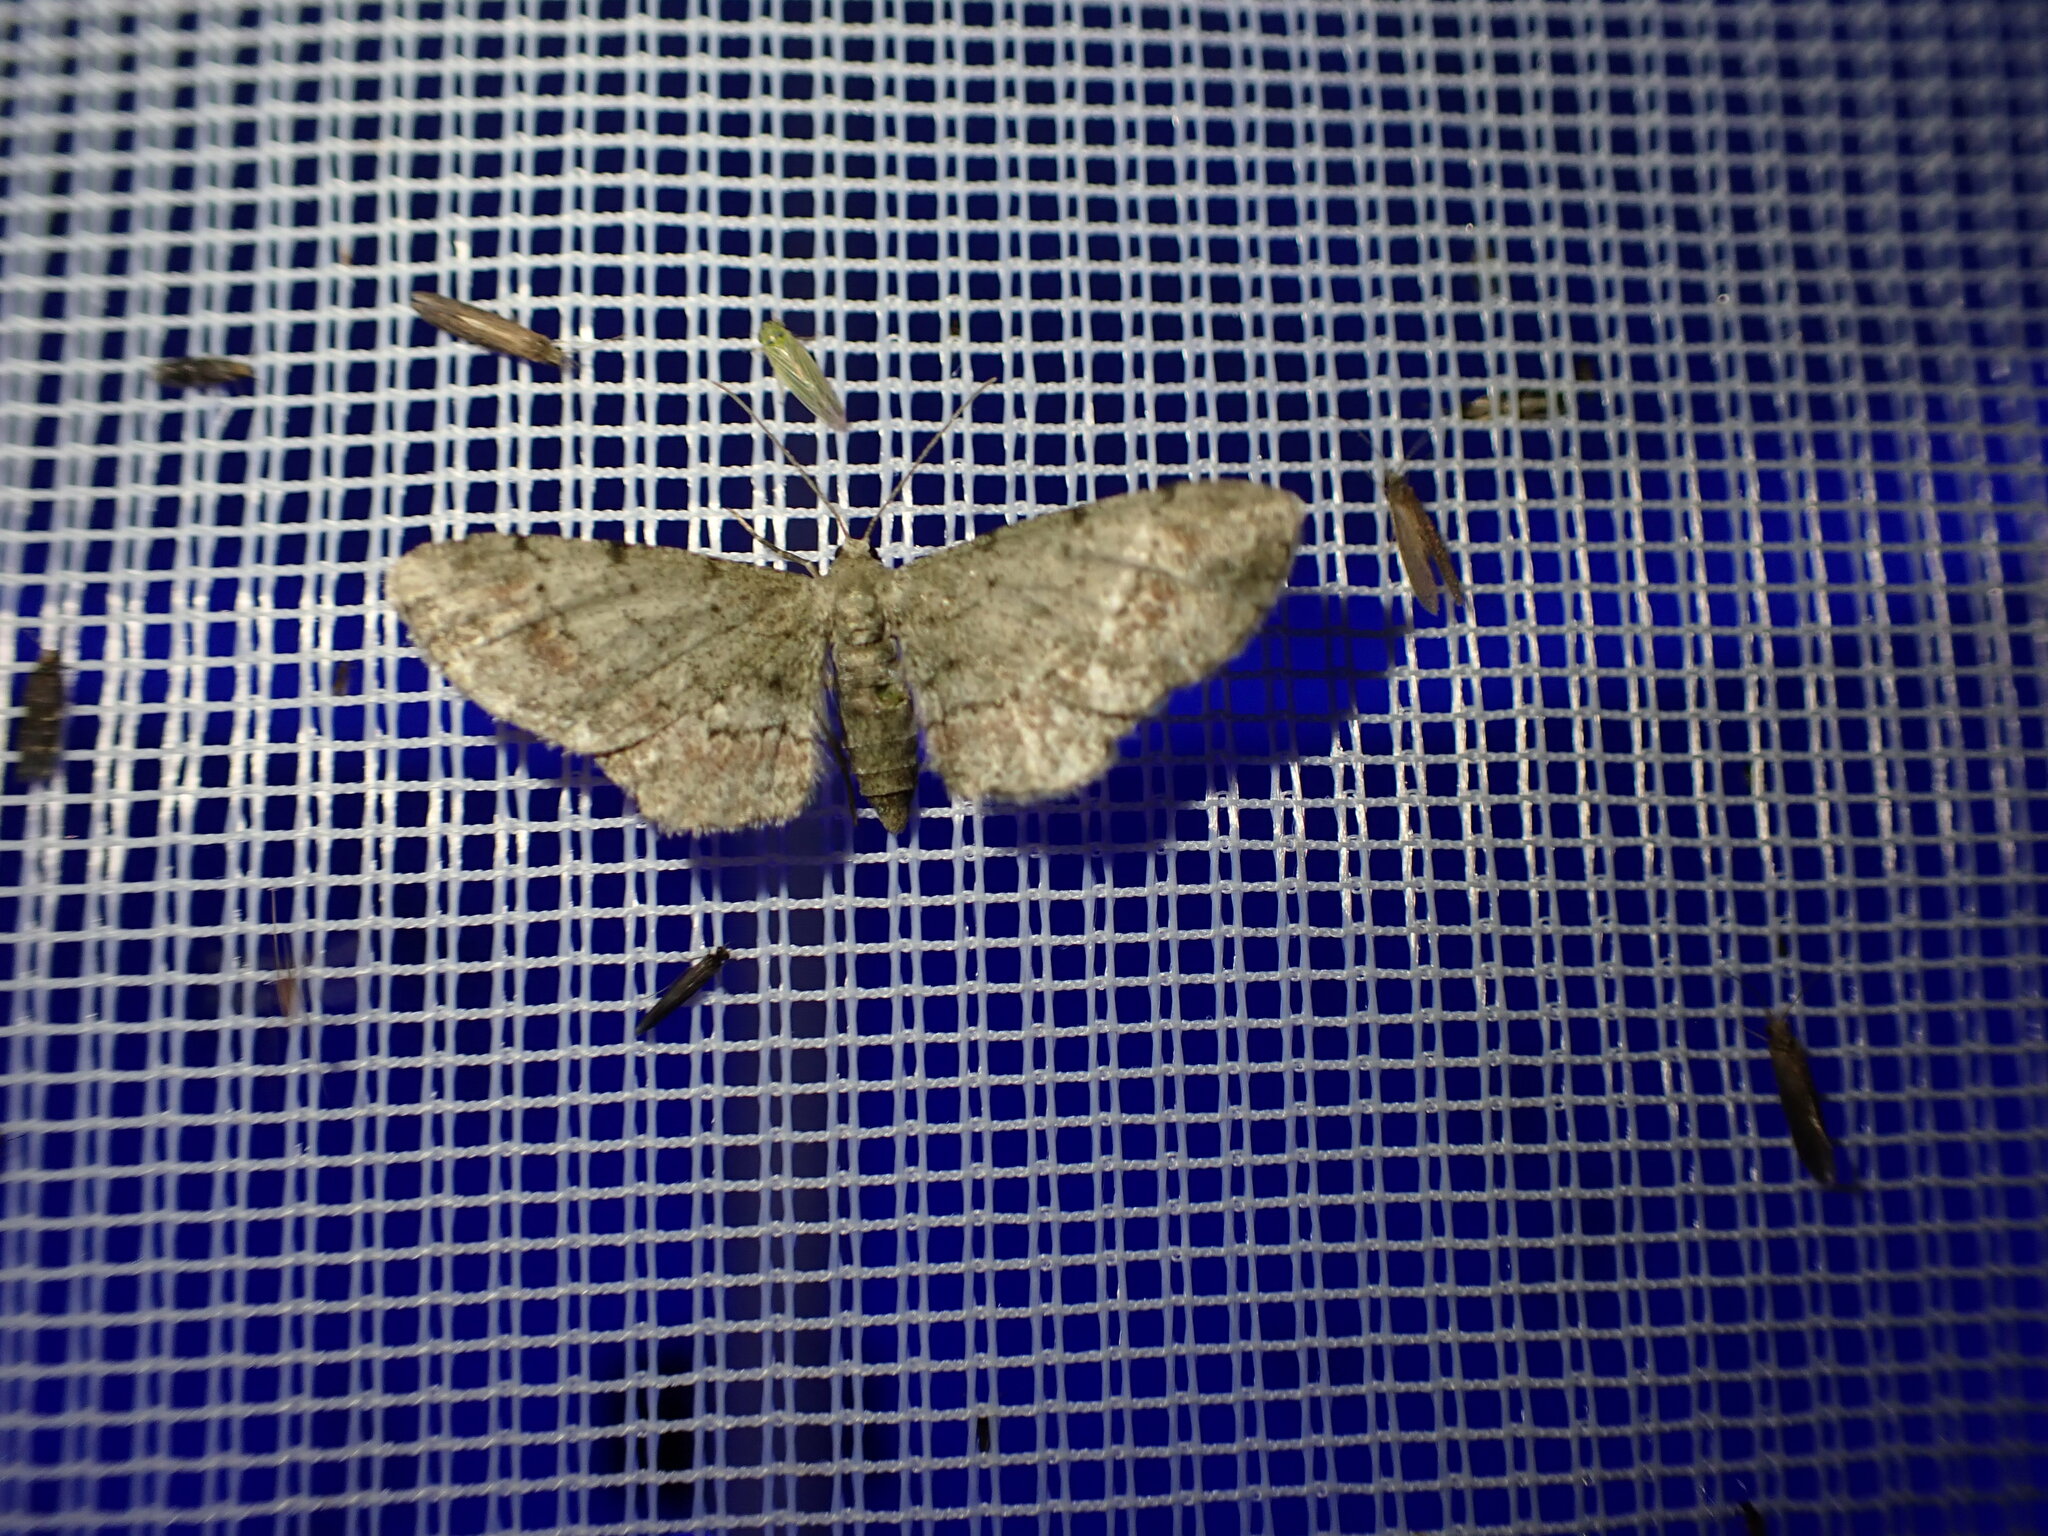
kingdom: Animalia
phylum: Arthropoda
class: Insecta
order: Lepidoptera
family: Geometridae
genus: Glenoides
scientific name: Glenoides texanaria
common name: Texas gray
